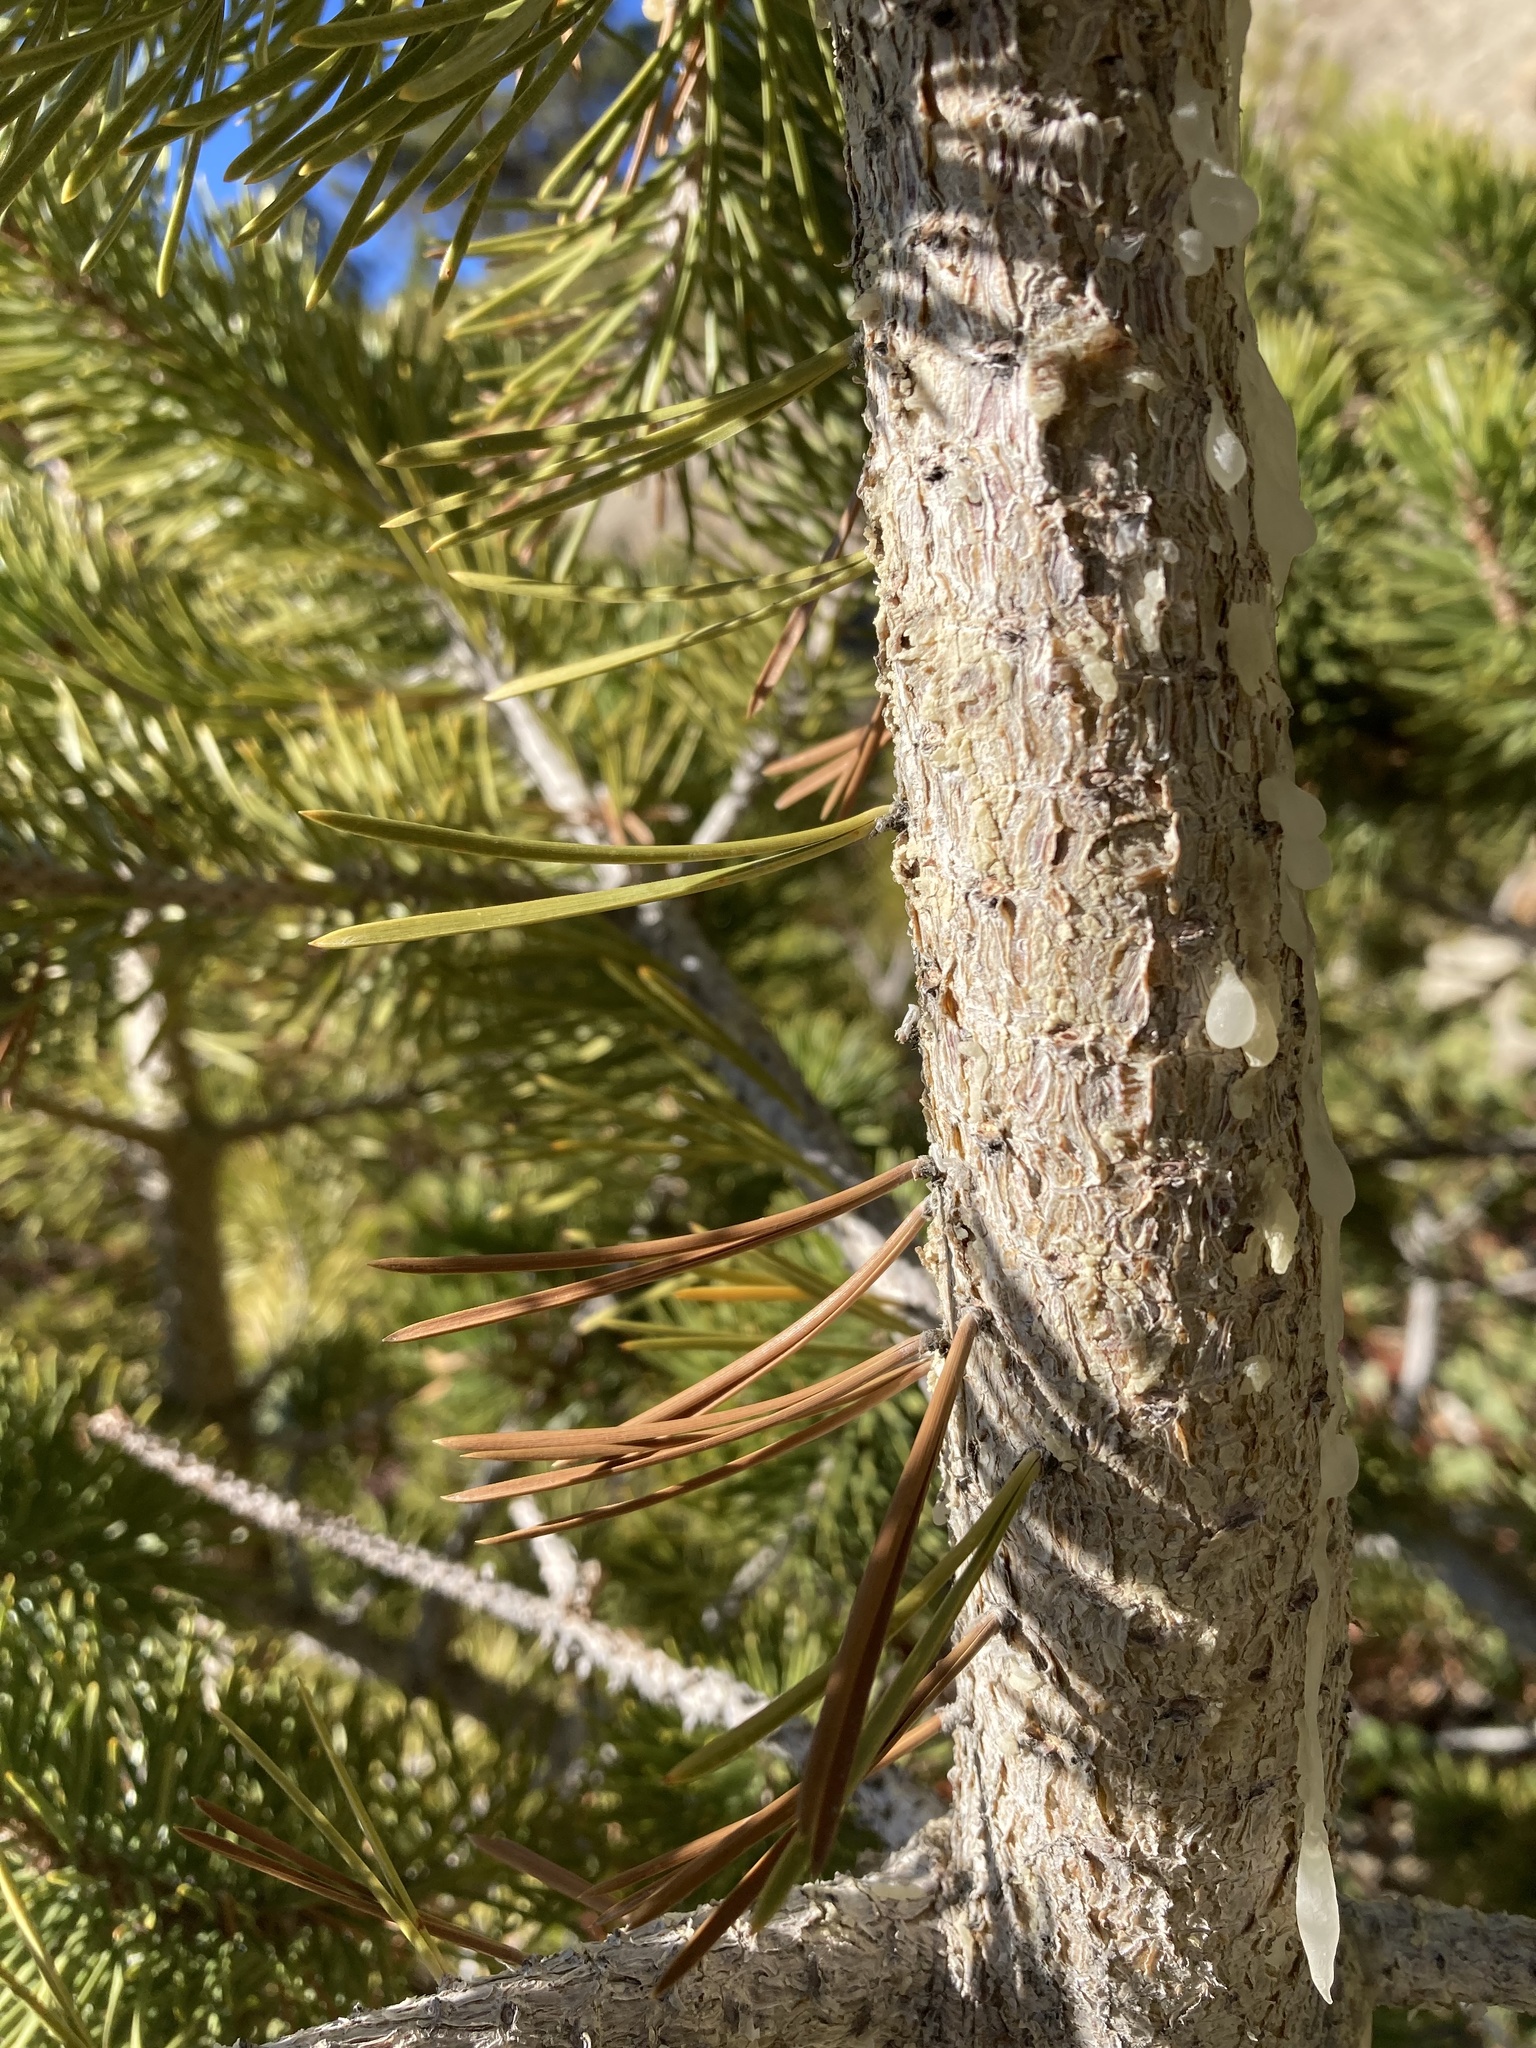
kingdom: Plantae
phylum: Tracheophyta
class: Pinopsida
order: Pinales
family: Pinaceae
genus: Pinus
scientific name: Pinus contorta
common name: Lodgepole pine
